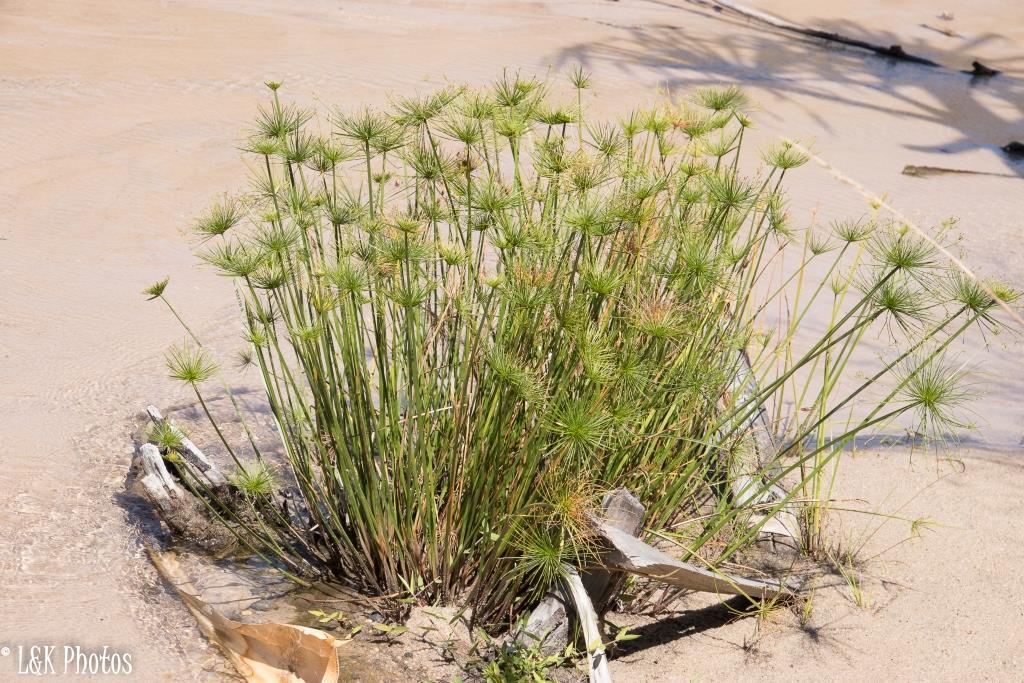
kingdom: Plantae
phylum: Tracheophyta
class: Liliopsida
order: Poales
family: Cyperaceae
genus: Cyperus
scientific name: Cyperus prolifer
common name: Miniature flatsedge
